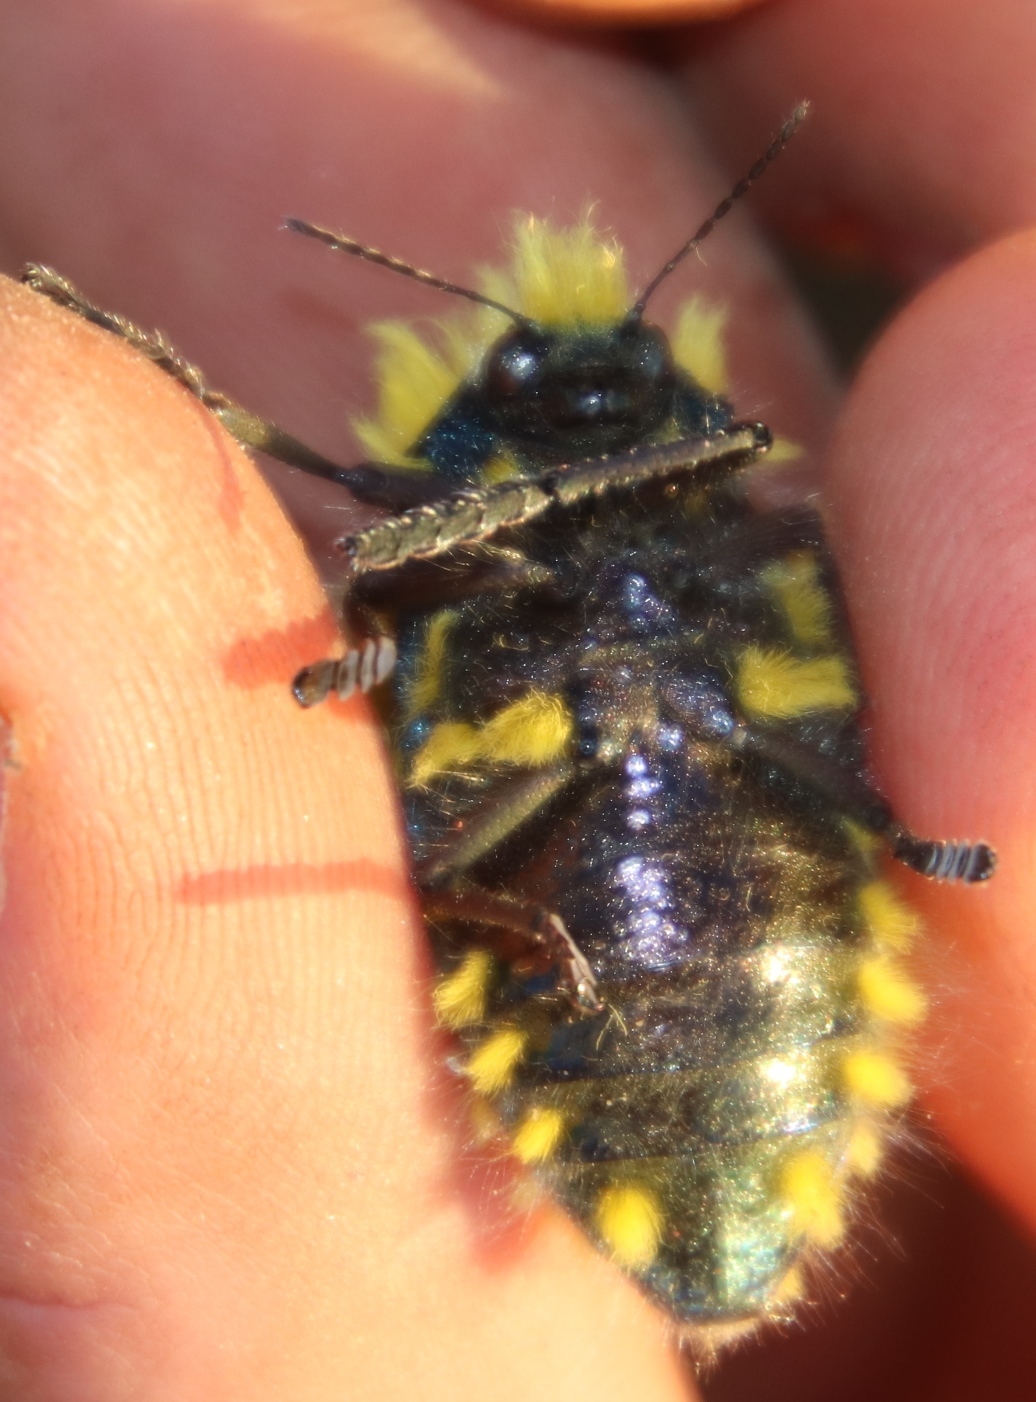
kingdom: Animalia
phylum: Arthropoda
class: Insecta
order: Coleoptera
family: Buprestidae
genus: Julodis
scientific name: Julodis viridipes
